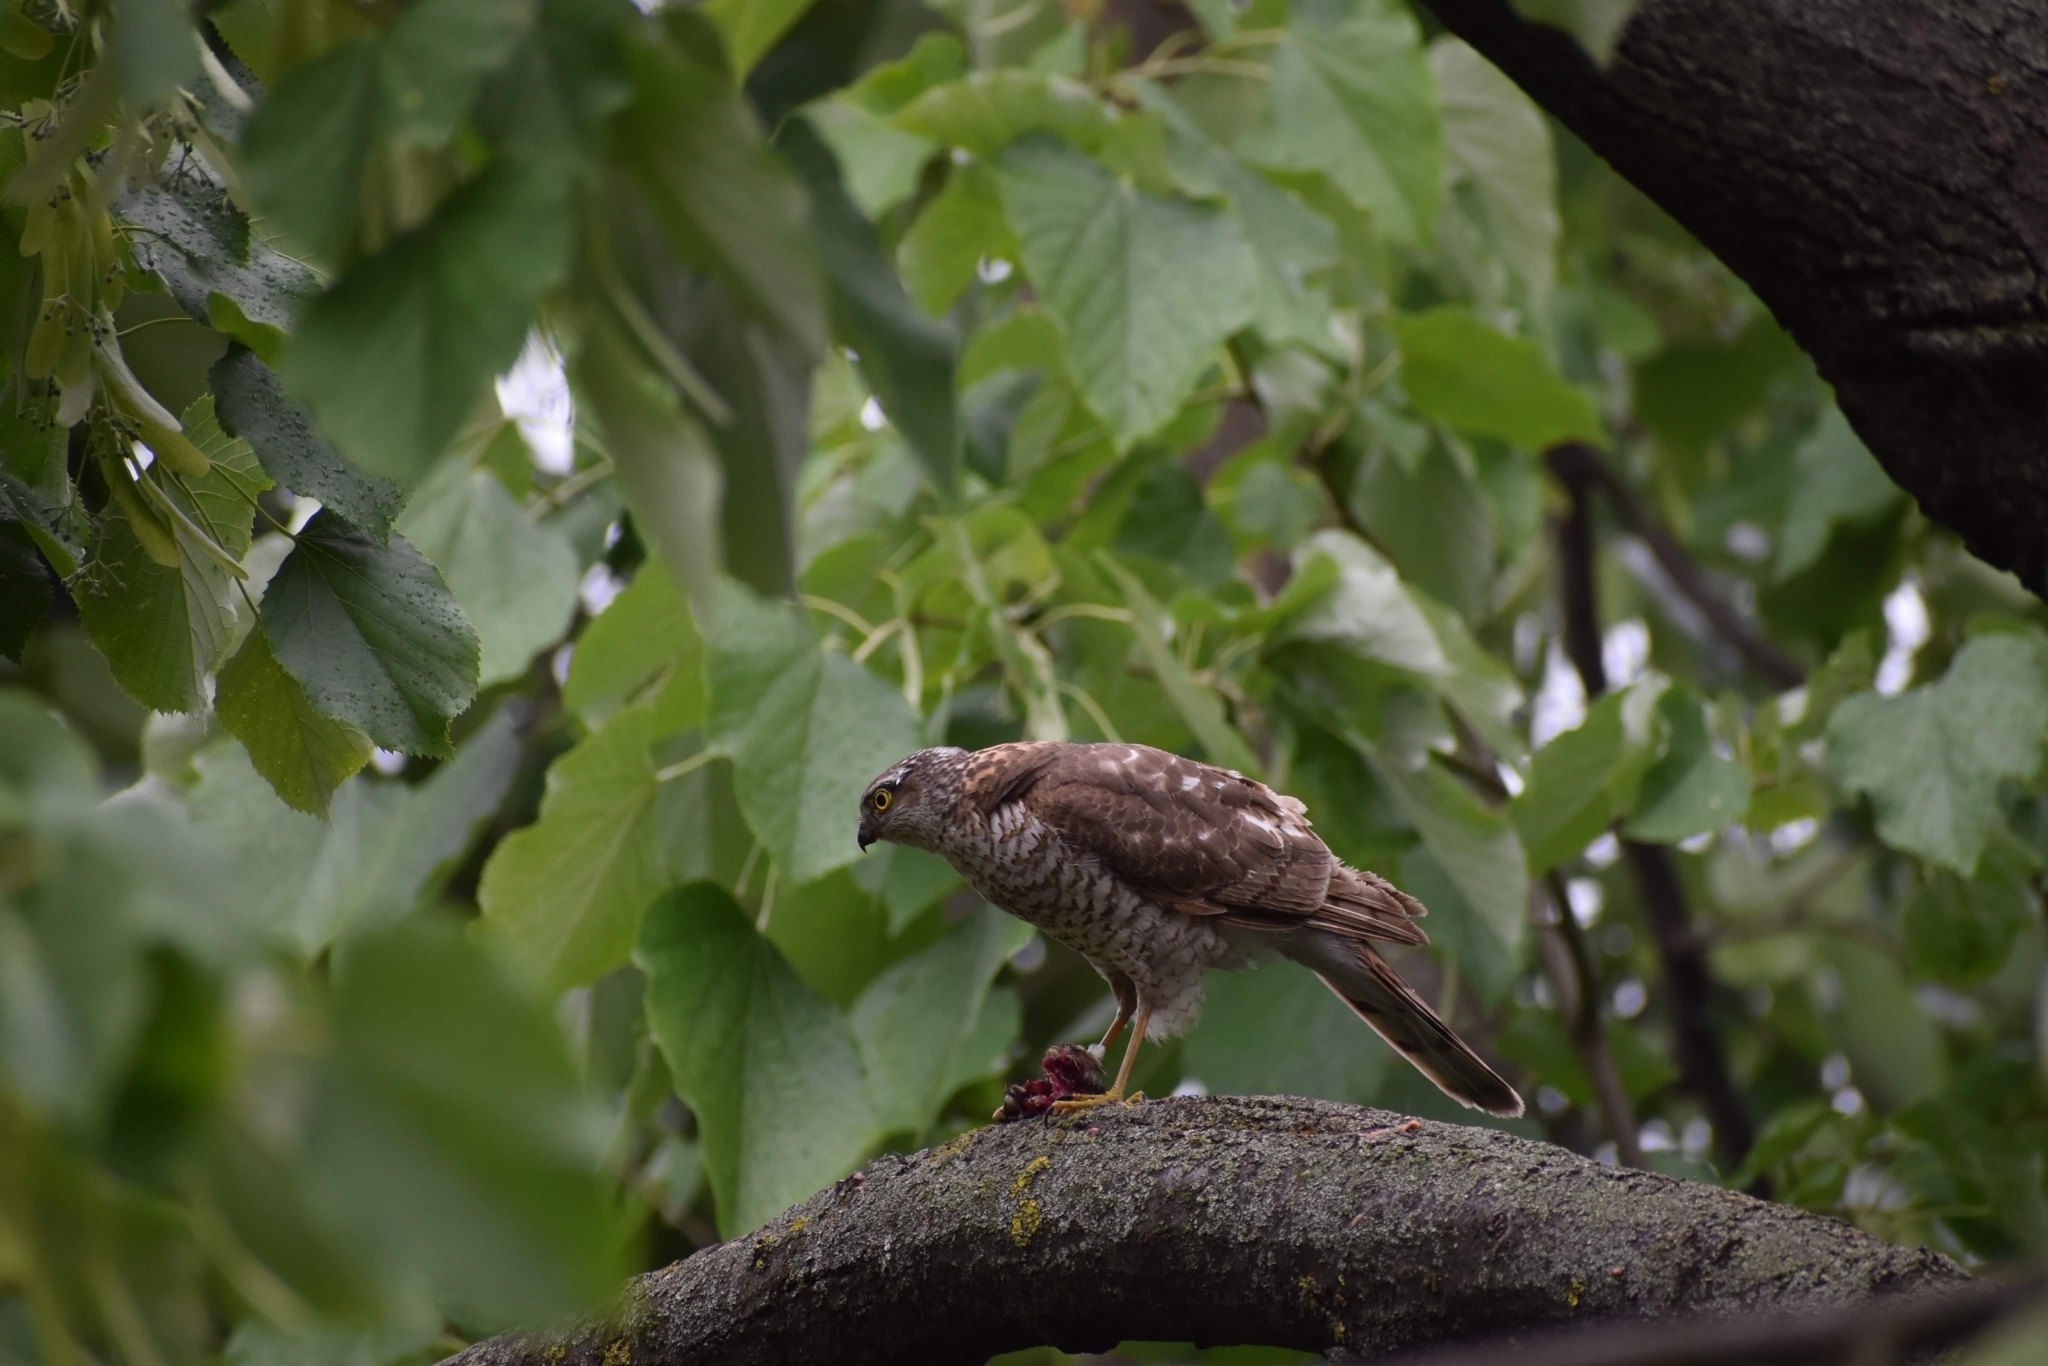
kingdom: Animalia
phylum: Chordata
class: Aves
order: Accipitriformes
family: Accipitridae
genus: Accipiter
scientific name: Accipiter nisus
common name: Eurasian sparrowhawk
